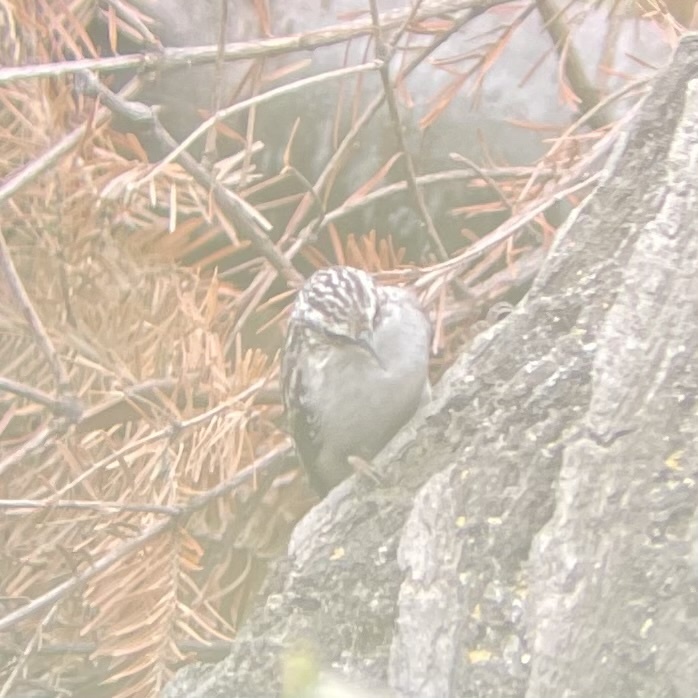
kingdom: Animalia
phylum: Chordata
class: Aves
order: Passeriformes
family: Certhiidae
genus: Certhia
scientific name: Certhia americana
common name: Brown creeper
